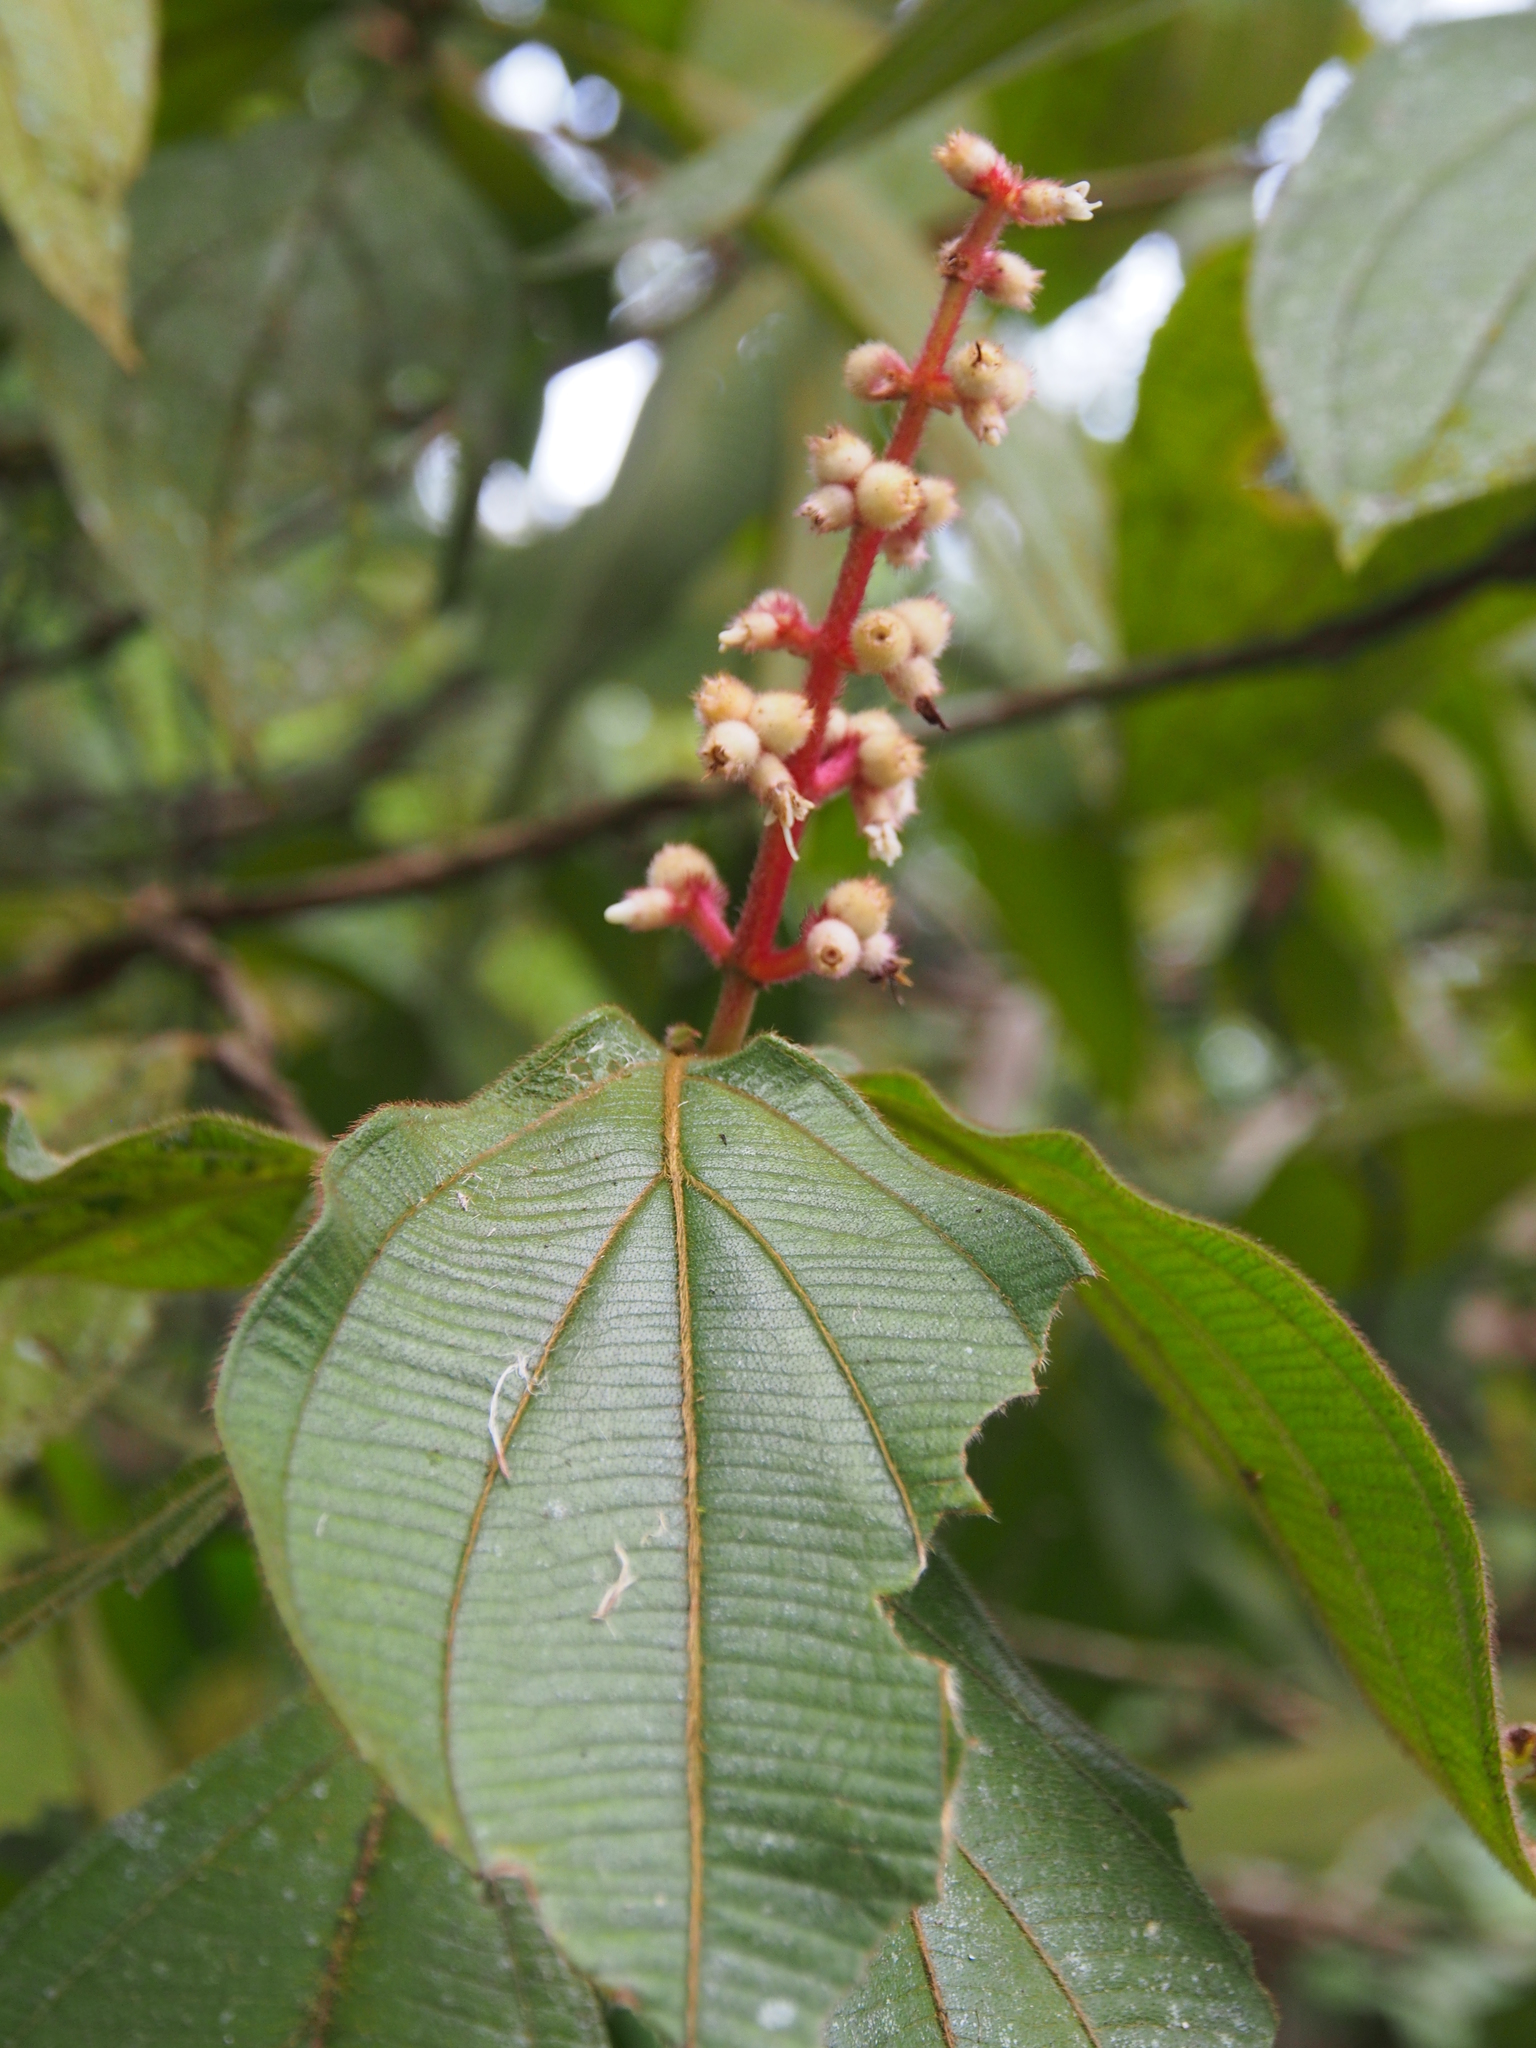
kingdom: Plantae
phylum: Tracheophyta
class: Magnoliopsida
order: Myrtales
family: Melastomataceae
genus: Miconia
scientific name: Miconia nervosa
